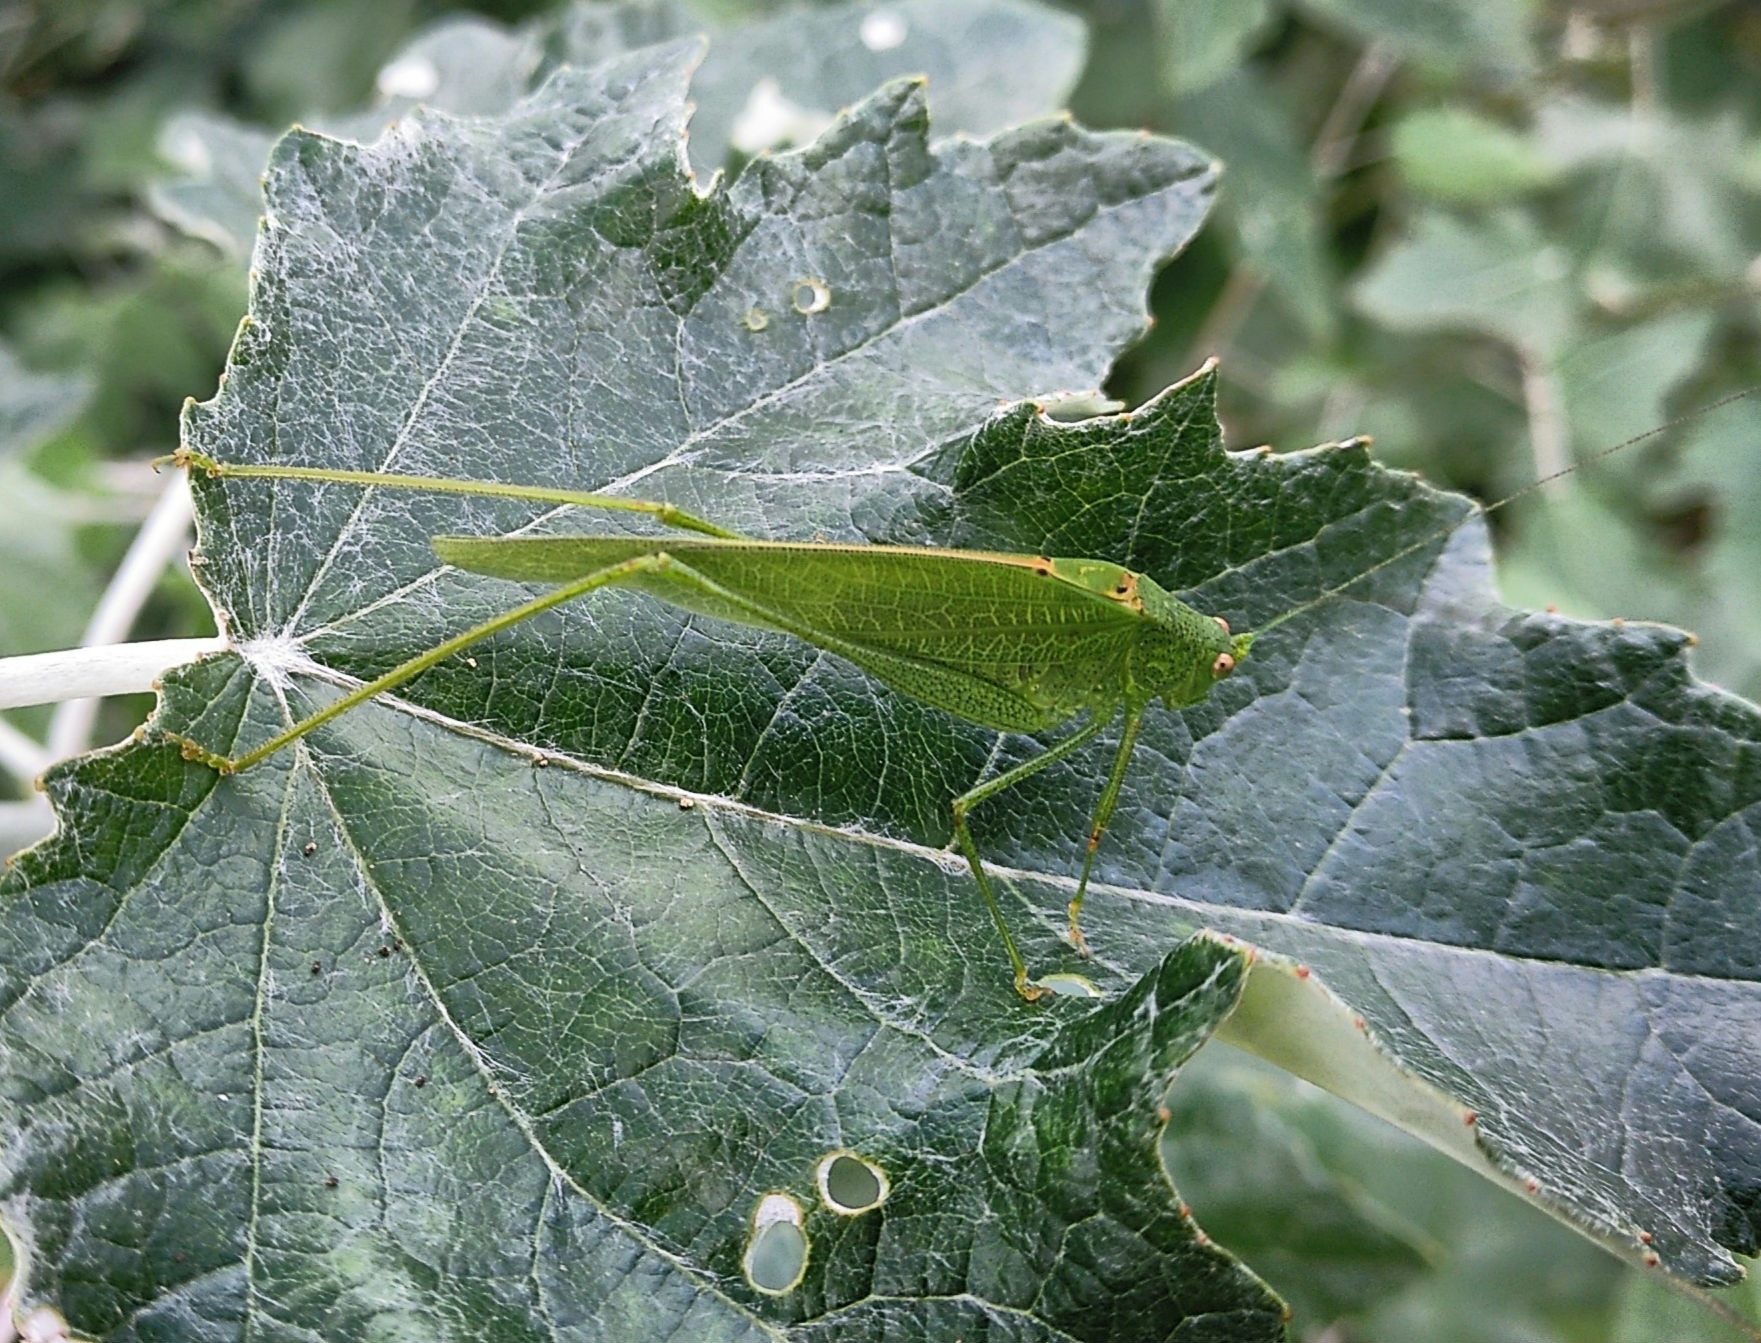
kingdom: Animalia
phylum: Arthropoda
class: Insecta
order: Orthoptera
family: Tettigoniidae
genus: Phaneroptera
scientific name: Phaneroptera nana
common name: Southern sickle bush-cricket
